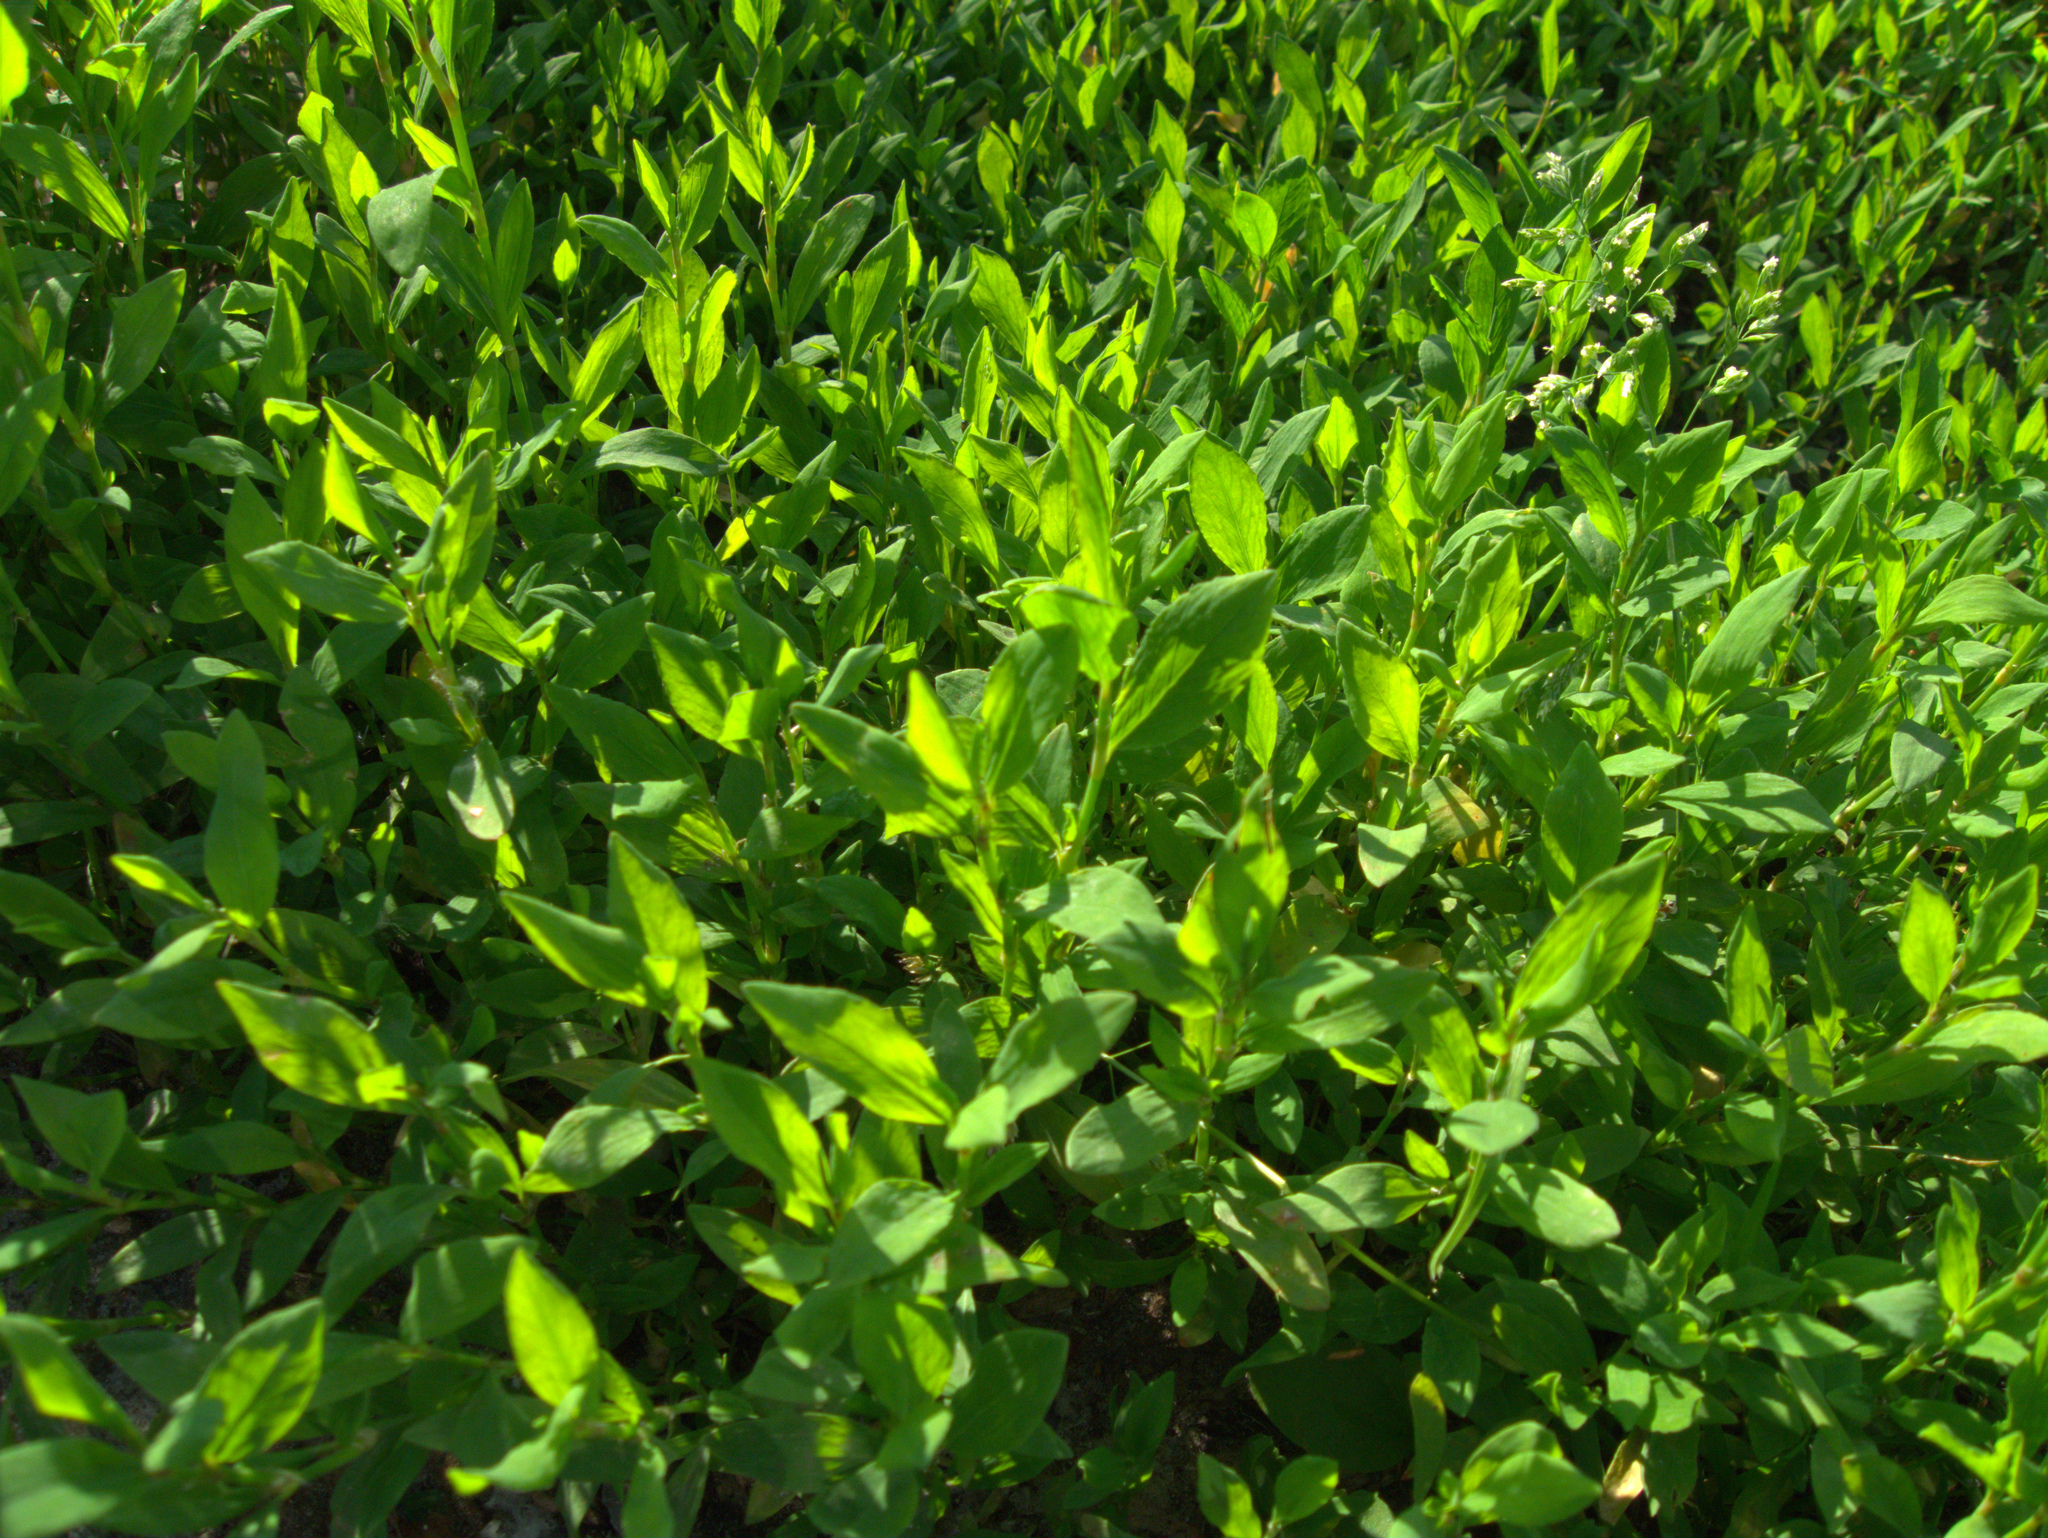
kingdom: Plantae
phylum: Tracheophyta
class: Magnoliopsida
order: Caryophyllales
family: Polygonaceae
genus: Polygonum
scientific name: Polygonum
